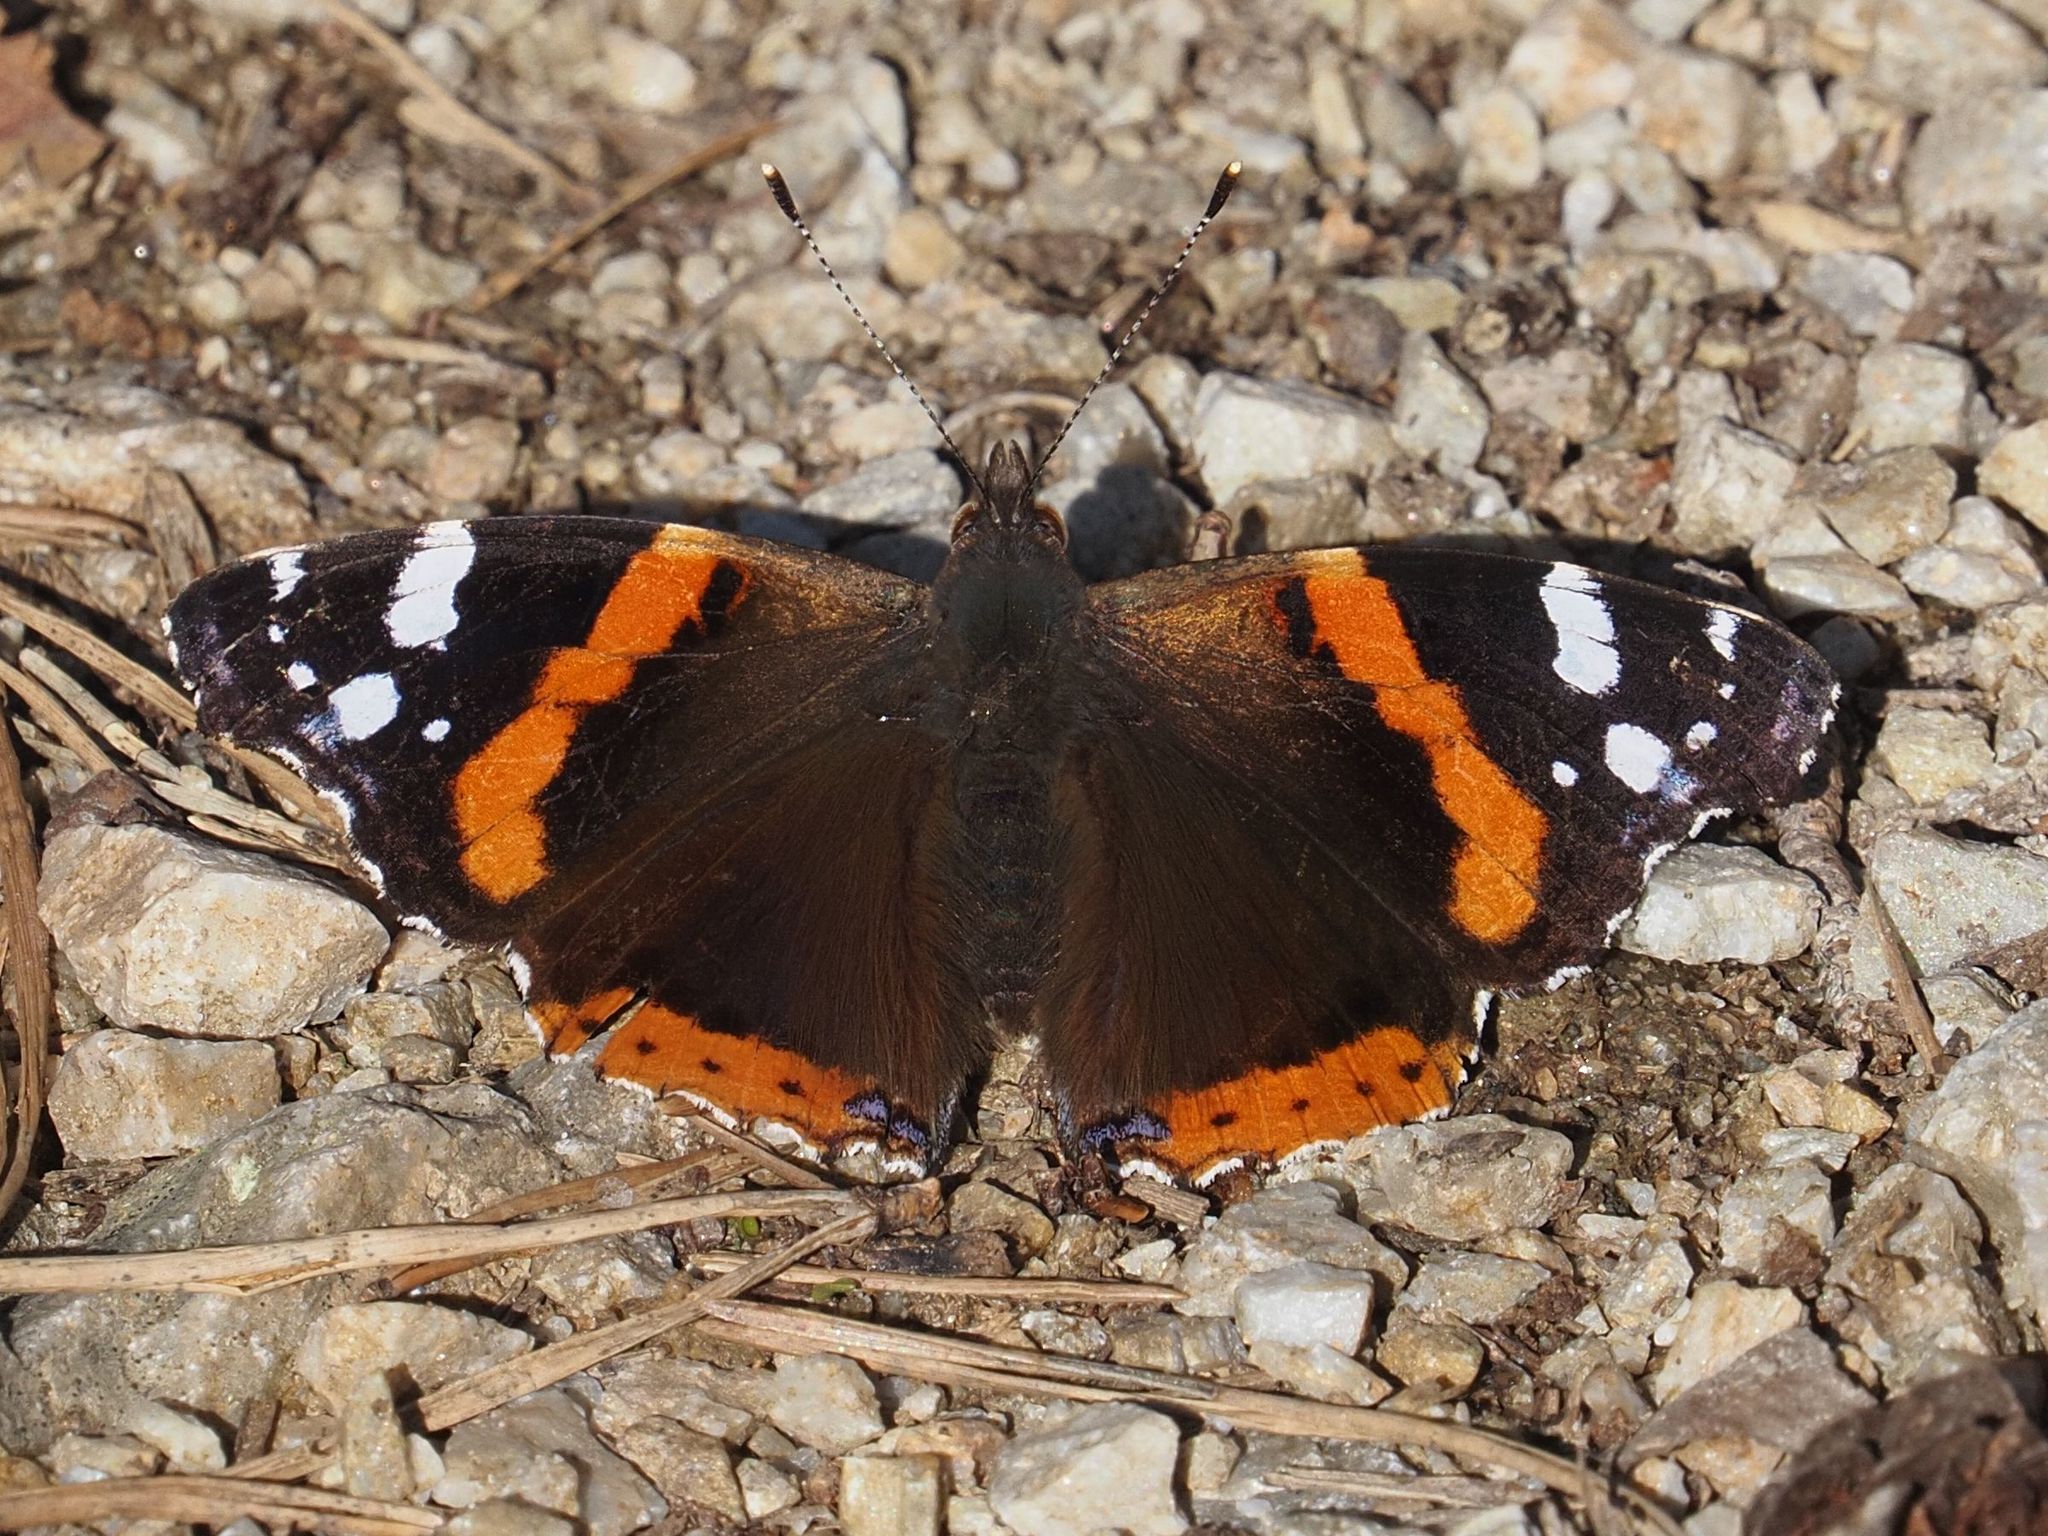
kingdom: Animalia
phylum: Arthropoda
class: Insecta
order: Lepidoptera
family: Nymphalidae
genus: Vanessa
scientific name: Vanessa atalanta
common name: Red admiral
